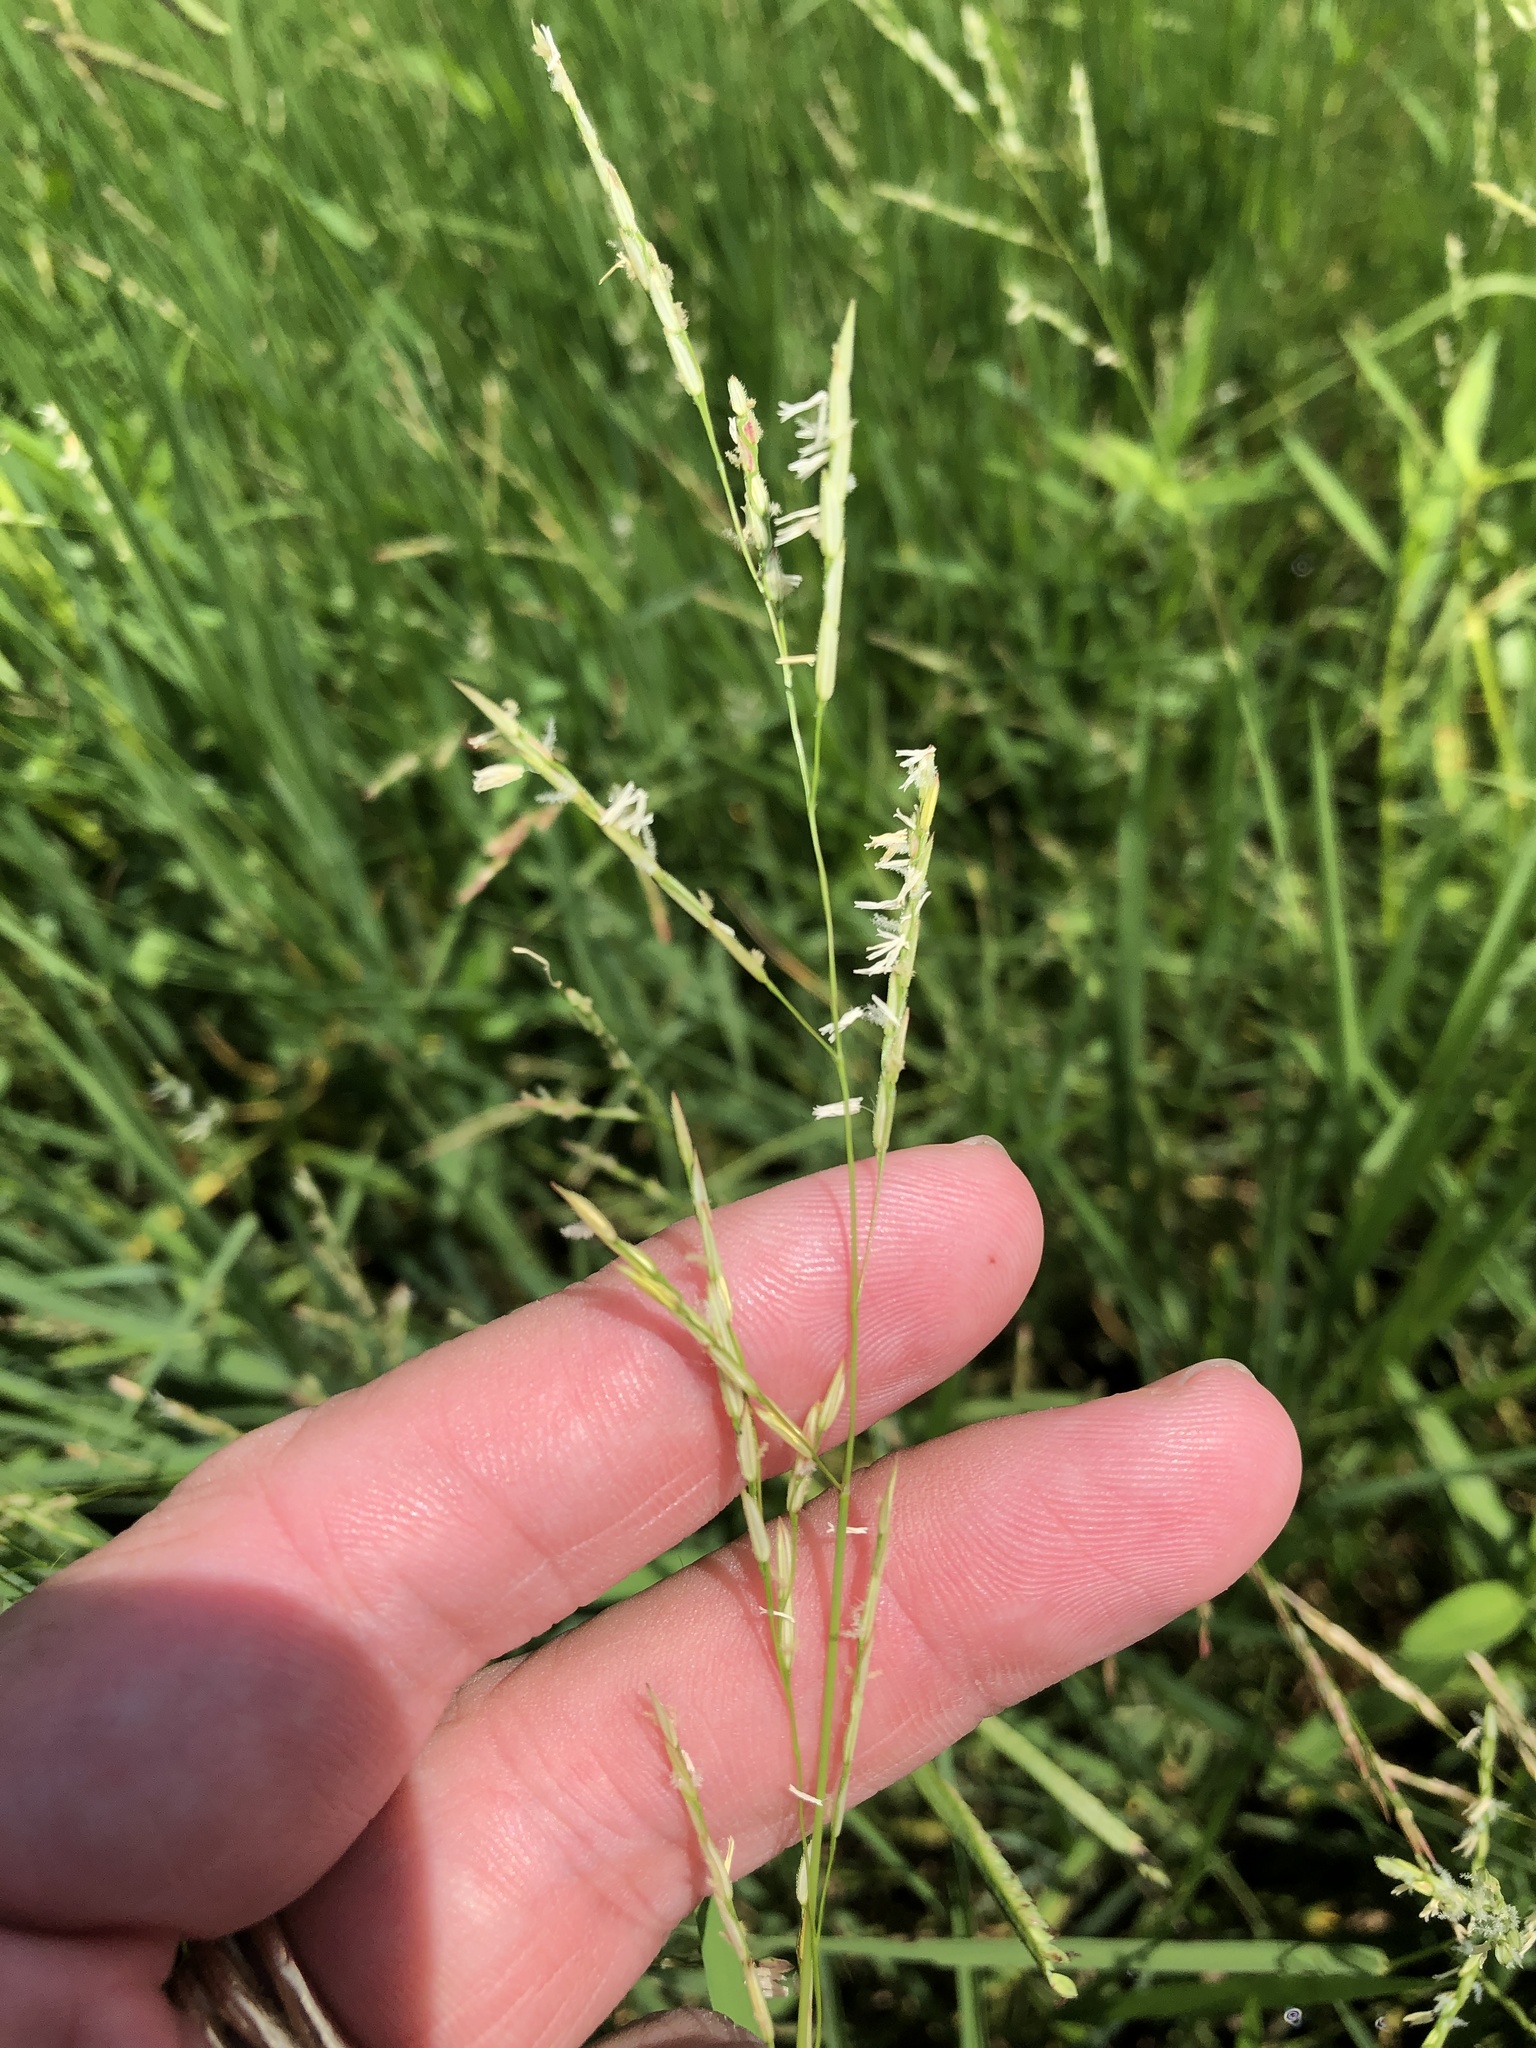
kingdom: Plantae
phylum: Tracheophyta
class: Liliopsida
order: Poales
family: Poaceae
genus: Leersia
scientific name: Leersia oryzoides
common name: Cut-grass
